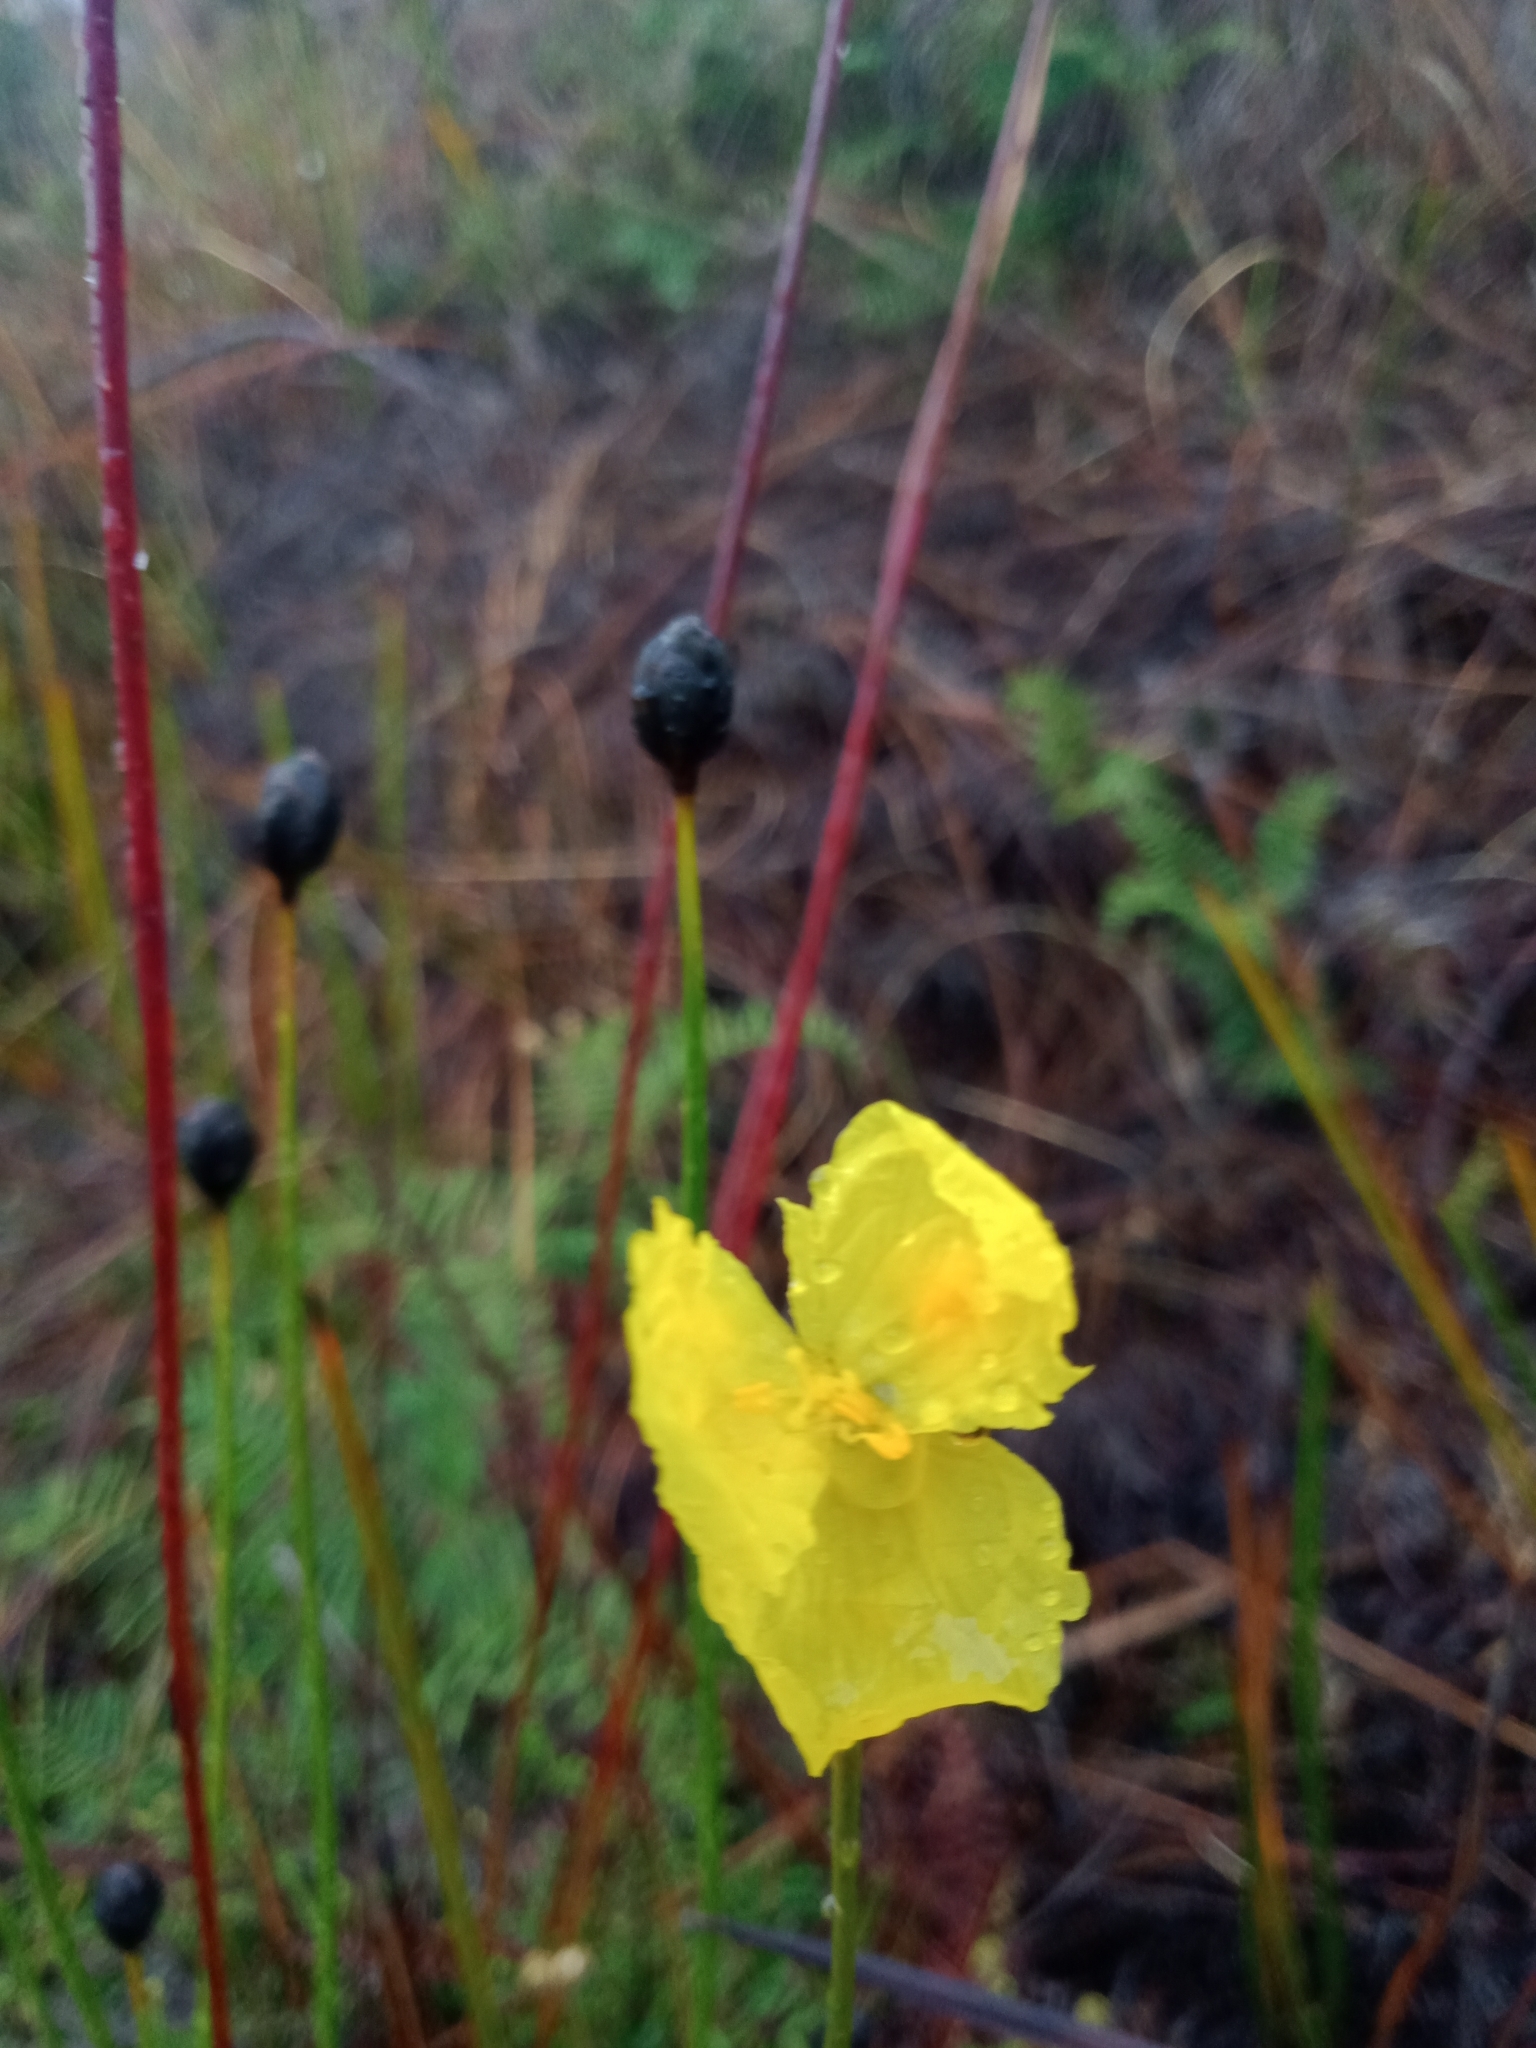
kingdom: Plantae
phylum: Tracheophyta
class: Liliopsida
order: Poales
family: Xyridaceae
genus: Xyris
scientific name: Xyris operculata
